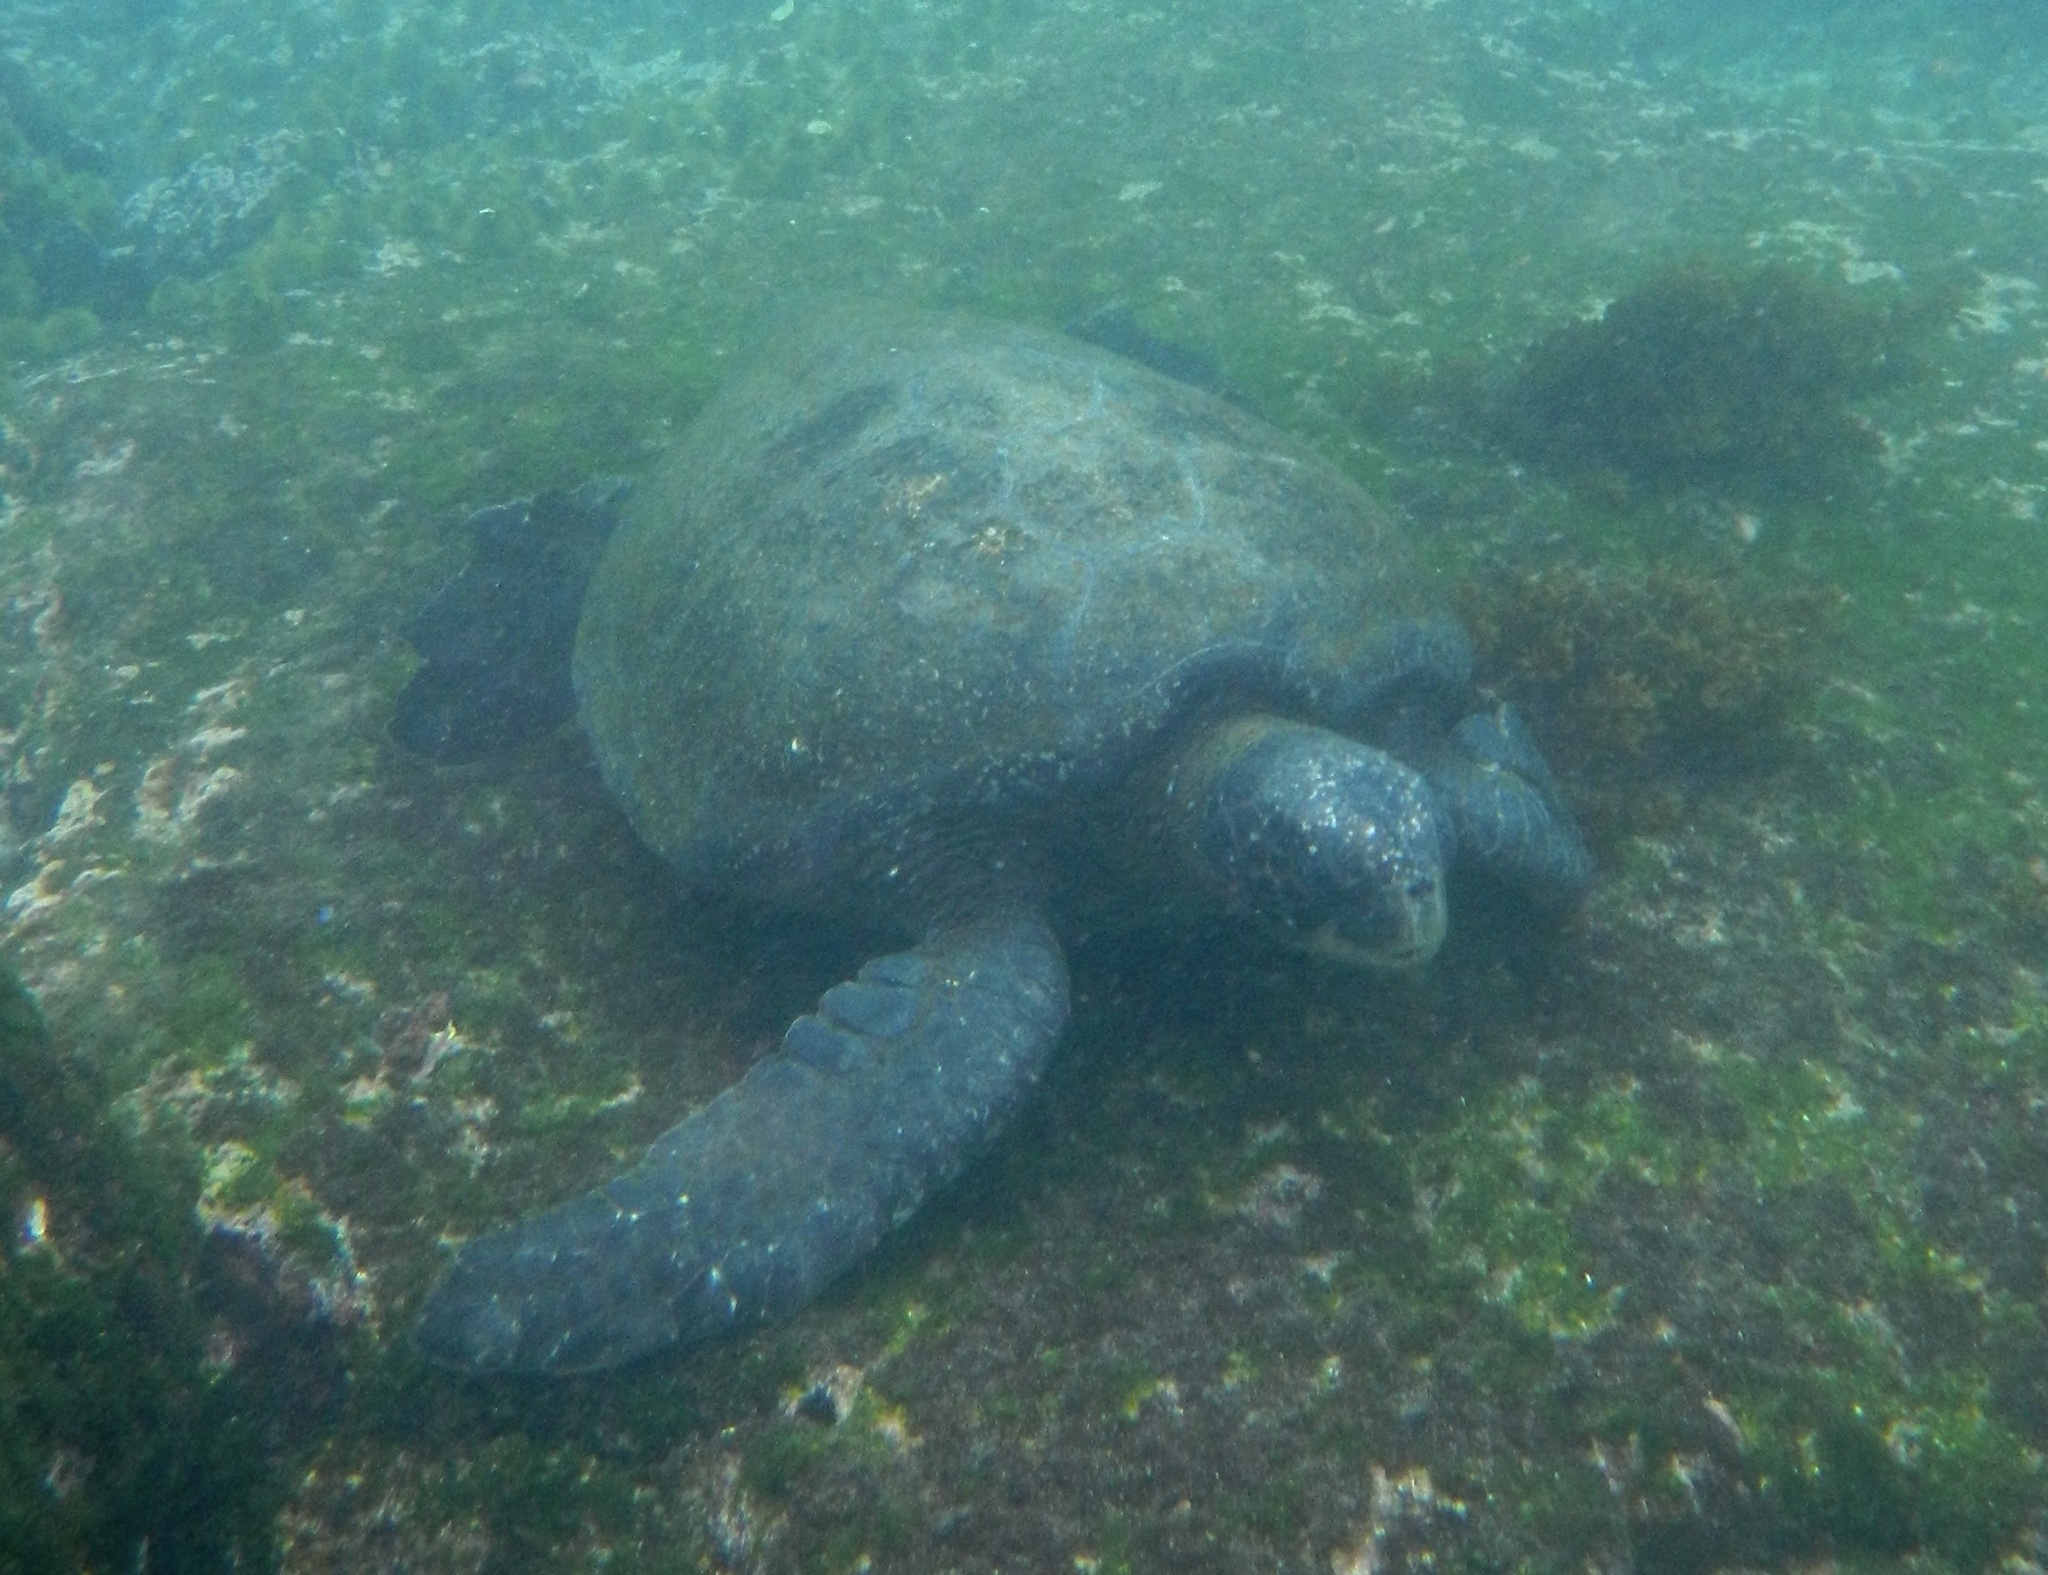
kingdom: Animalia
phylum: Chordata
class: Testudines
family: Cheloniidae
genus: Chelonia
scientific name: Chelonia mydas
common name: Green turtle
